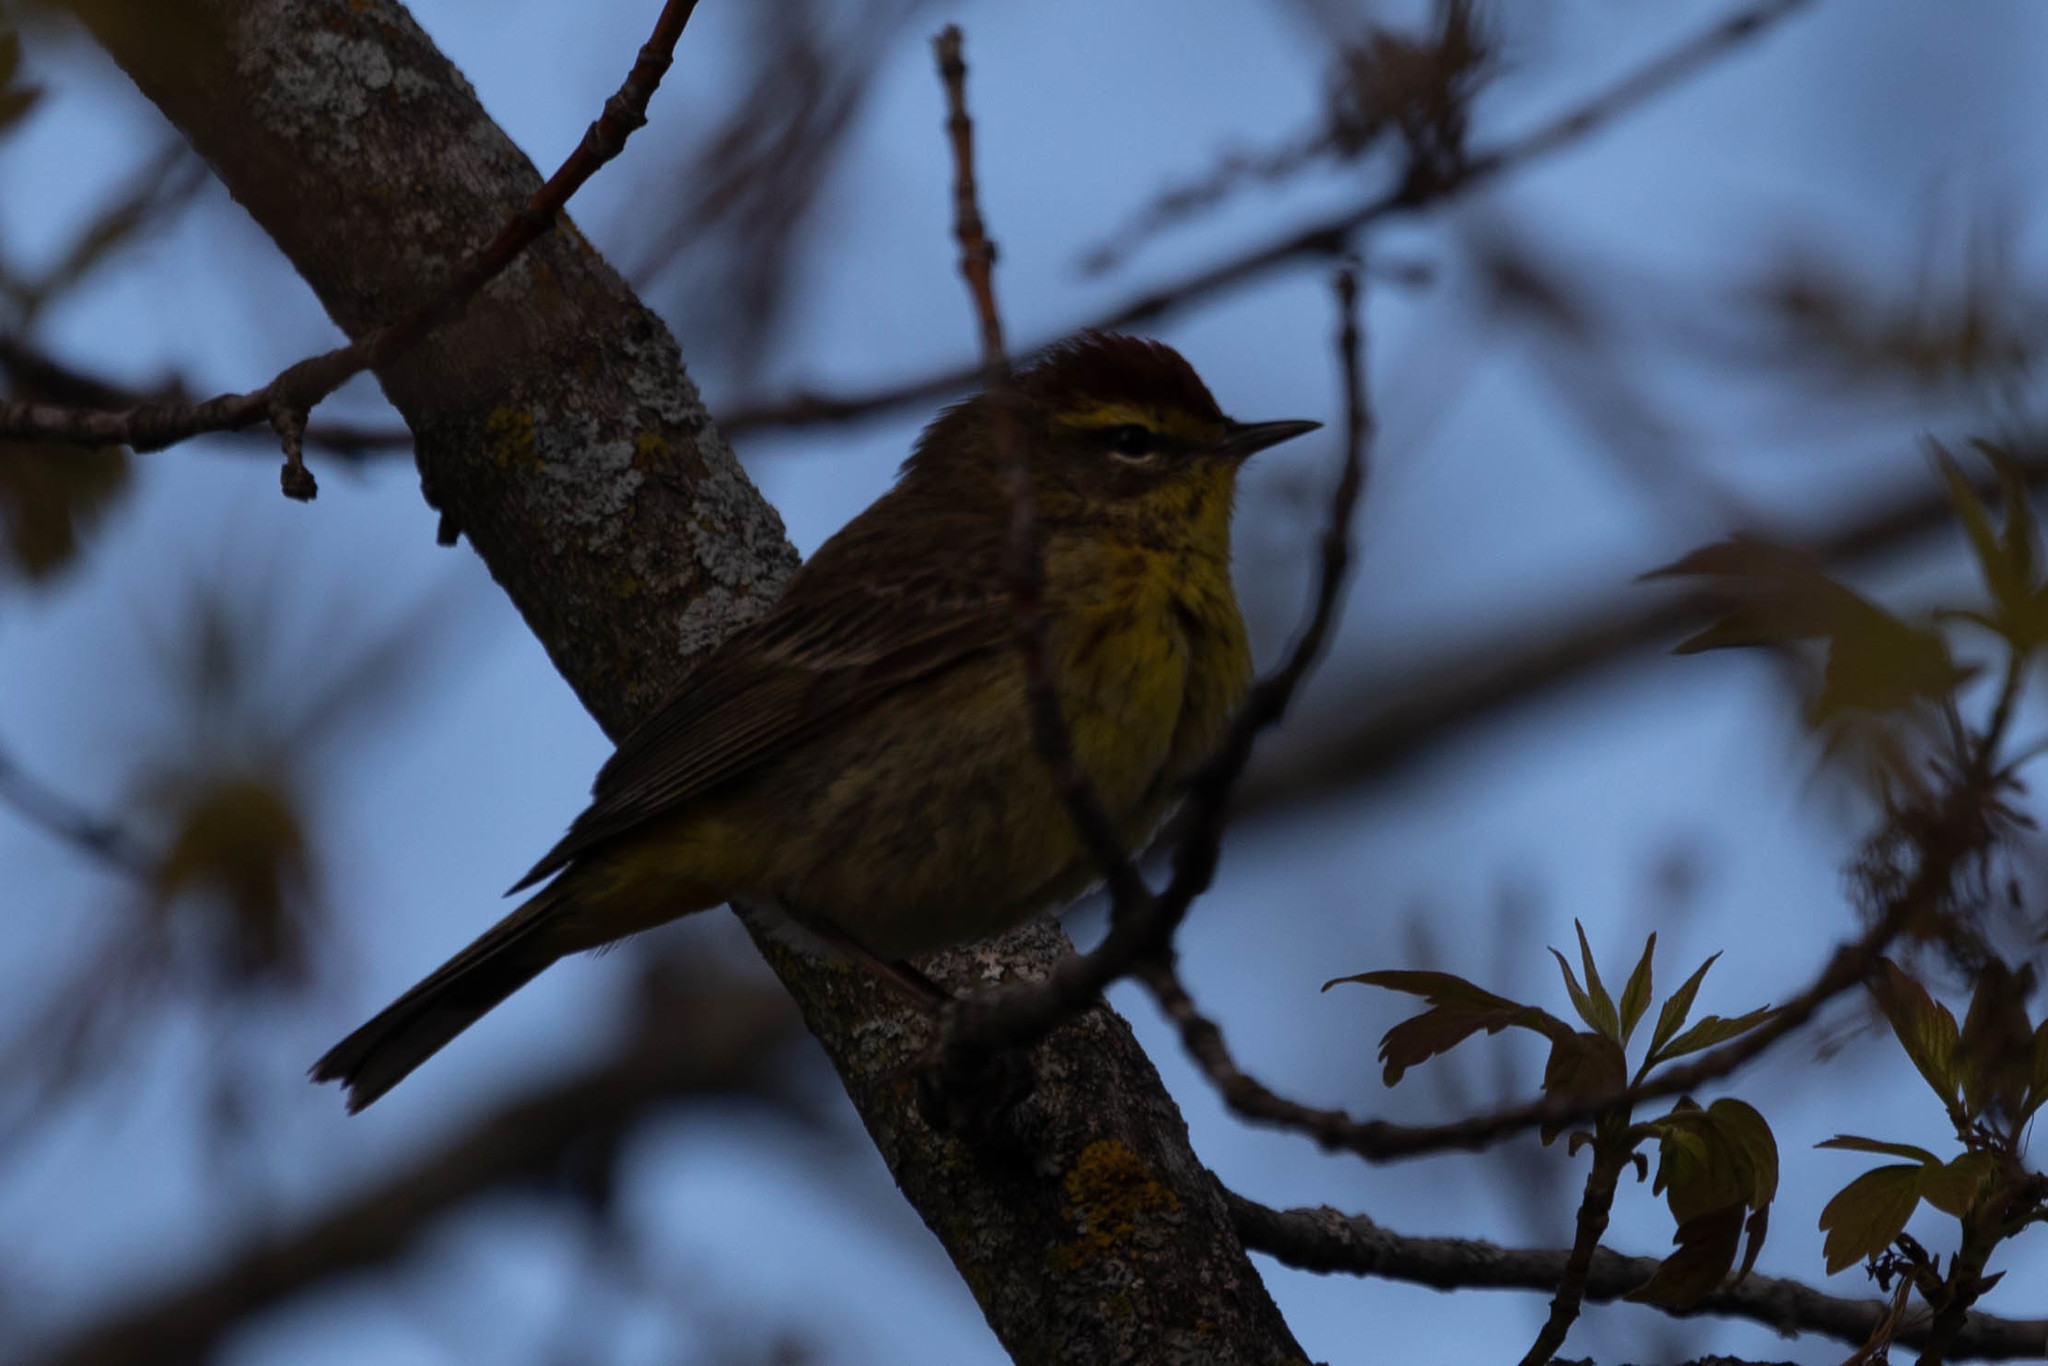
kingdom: Animalia
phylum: Chordata
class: Aves
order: Passeriformes
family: Parulidae
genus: Setophaga
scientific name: Setophaga palmarum
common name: Palm warbler
